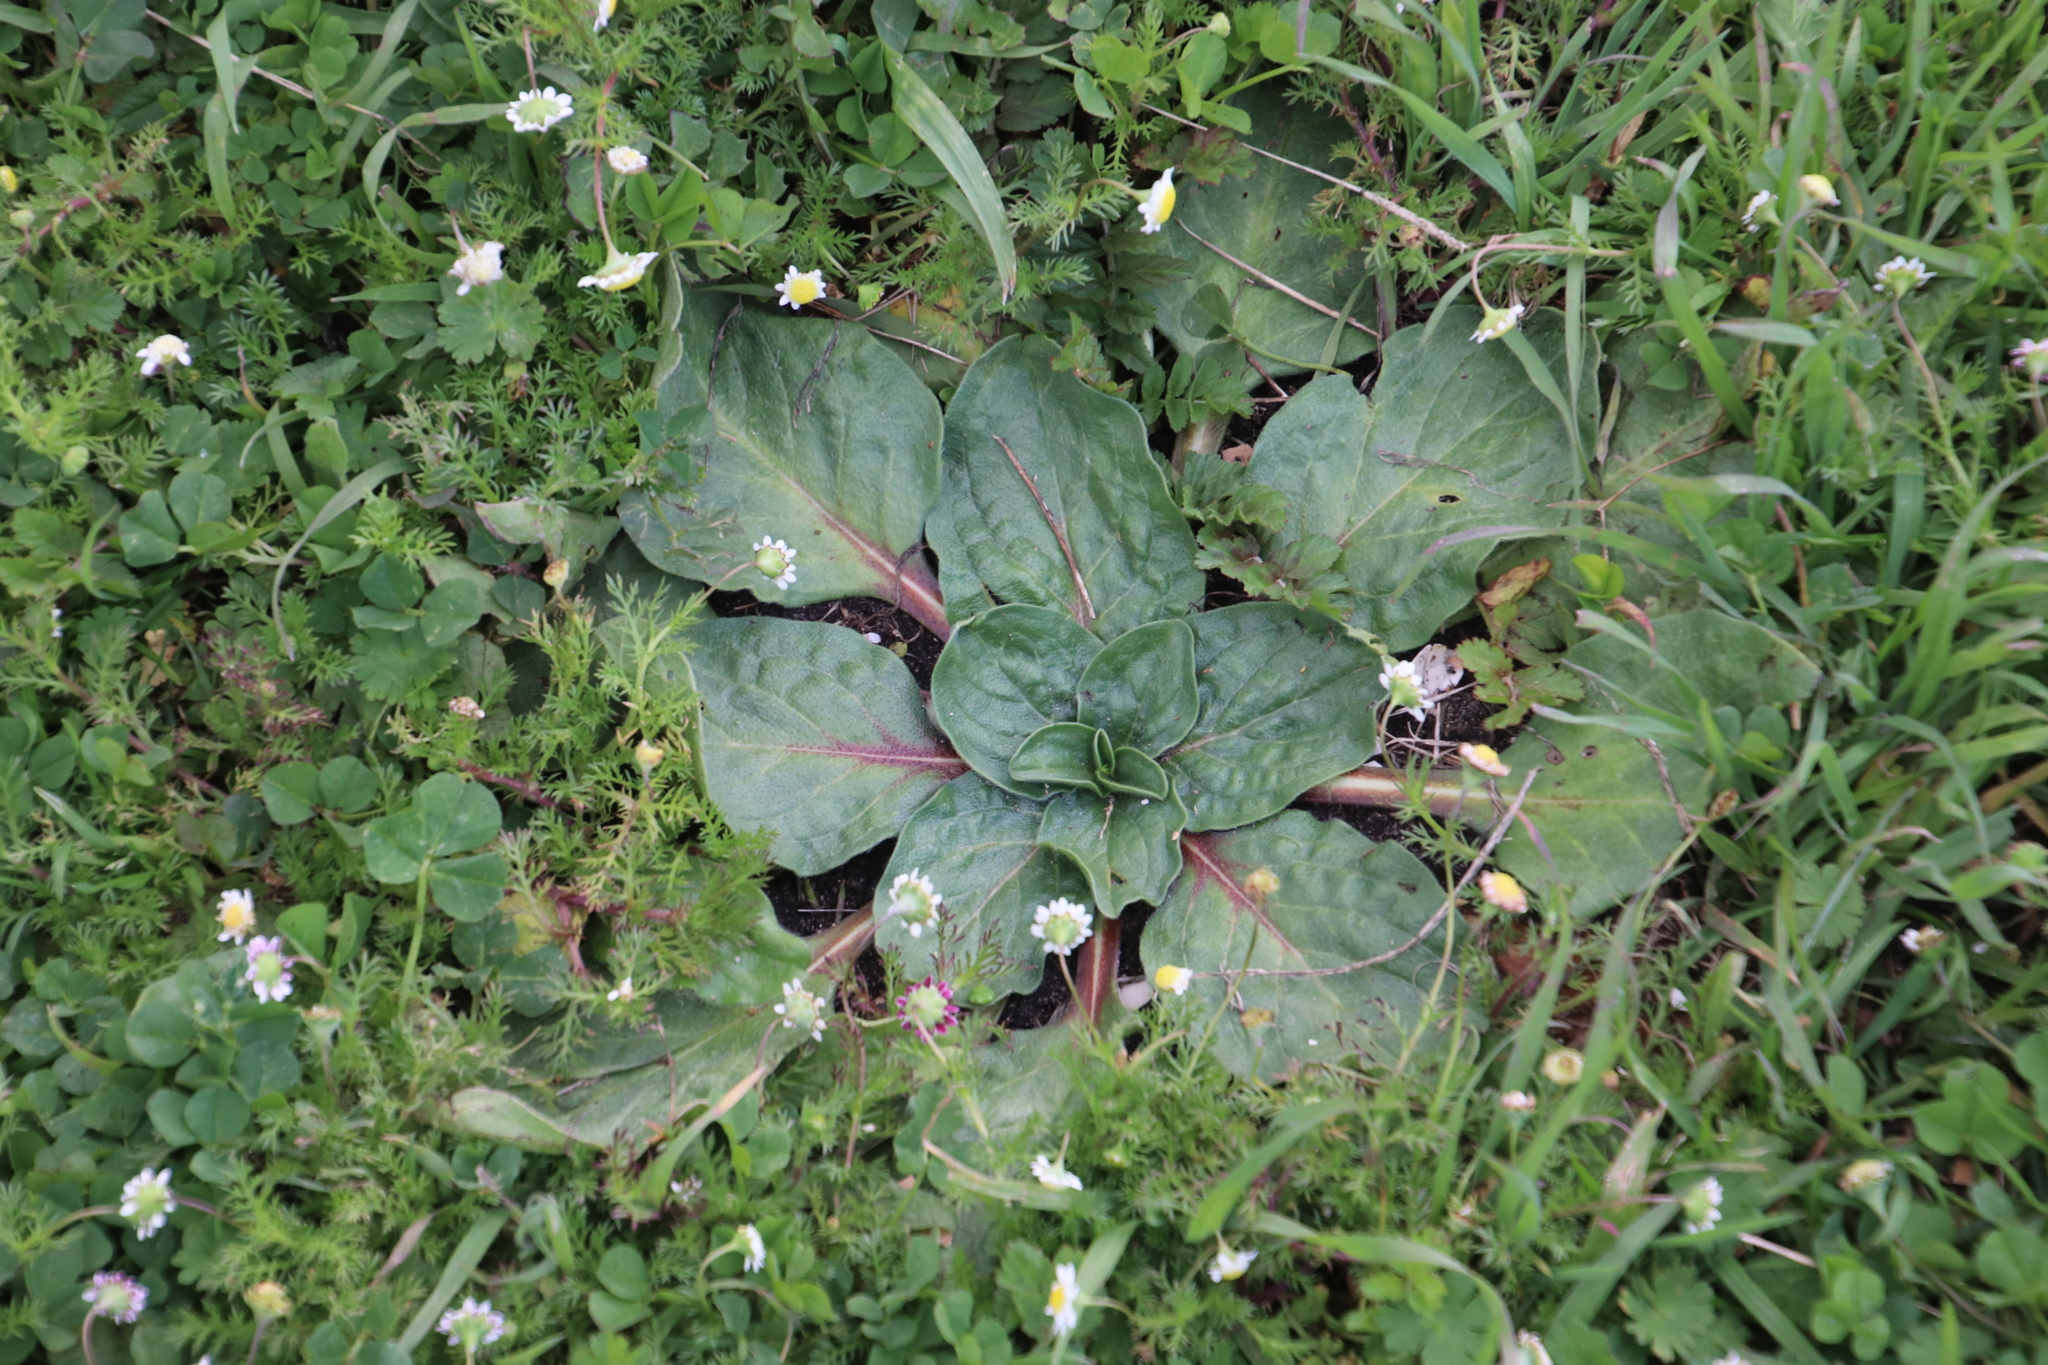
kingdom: Plantae
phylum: Tracheophyta
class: Magnoliopsida
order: Boraginales
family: Boraginaceae
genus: Echium
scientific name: Echium plantagineum
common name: Purple viper's-bugloss
